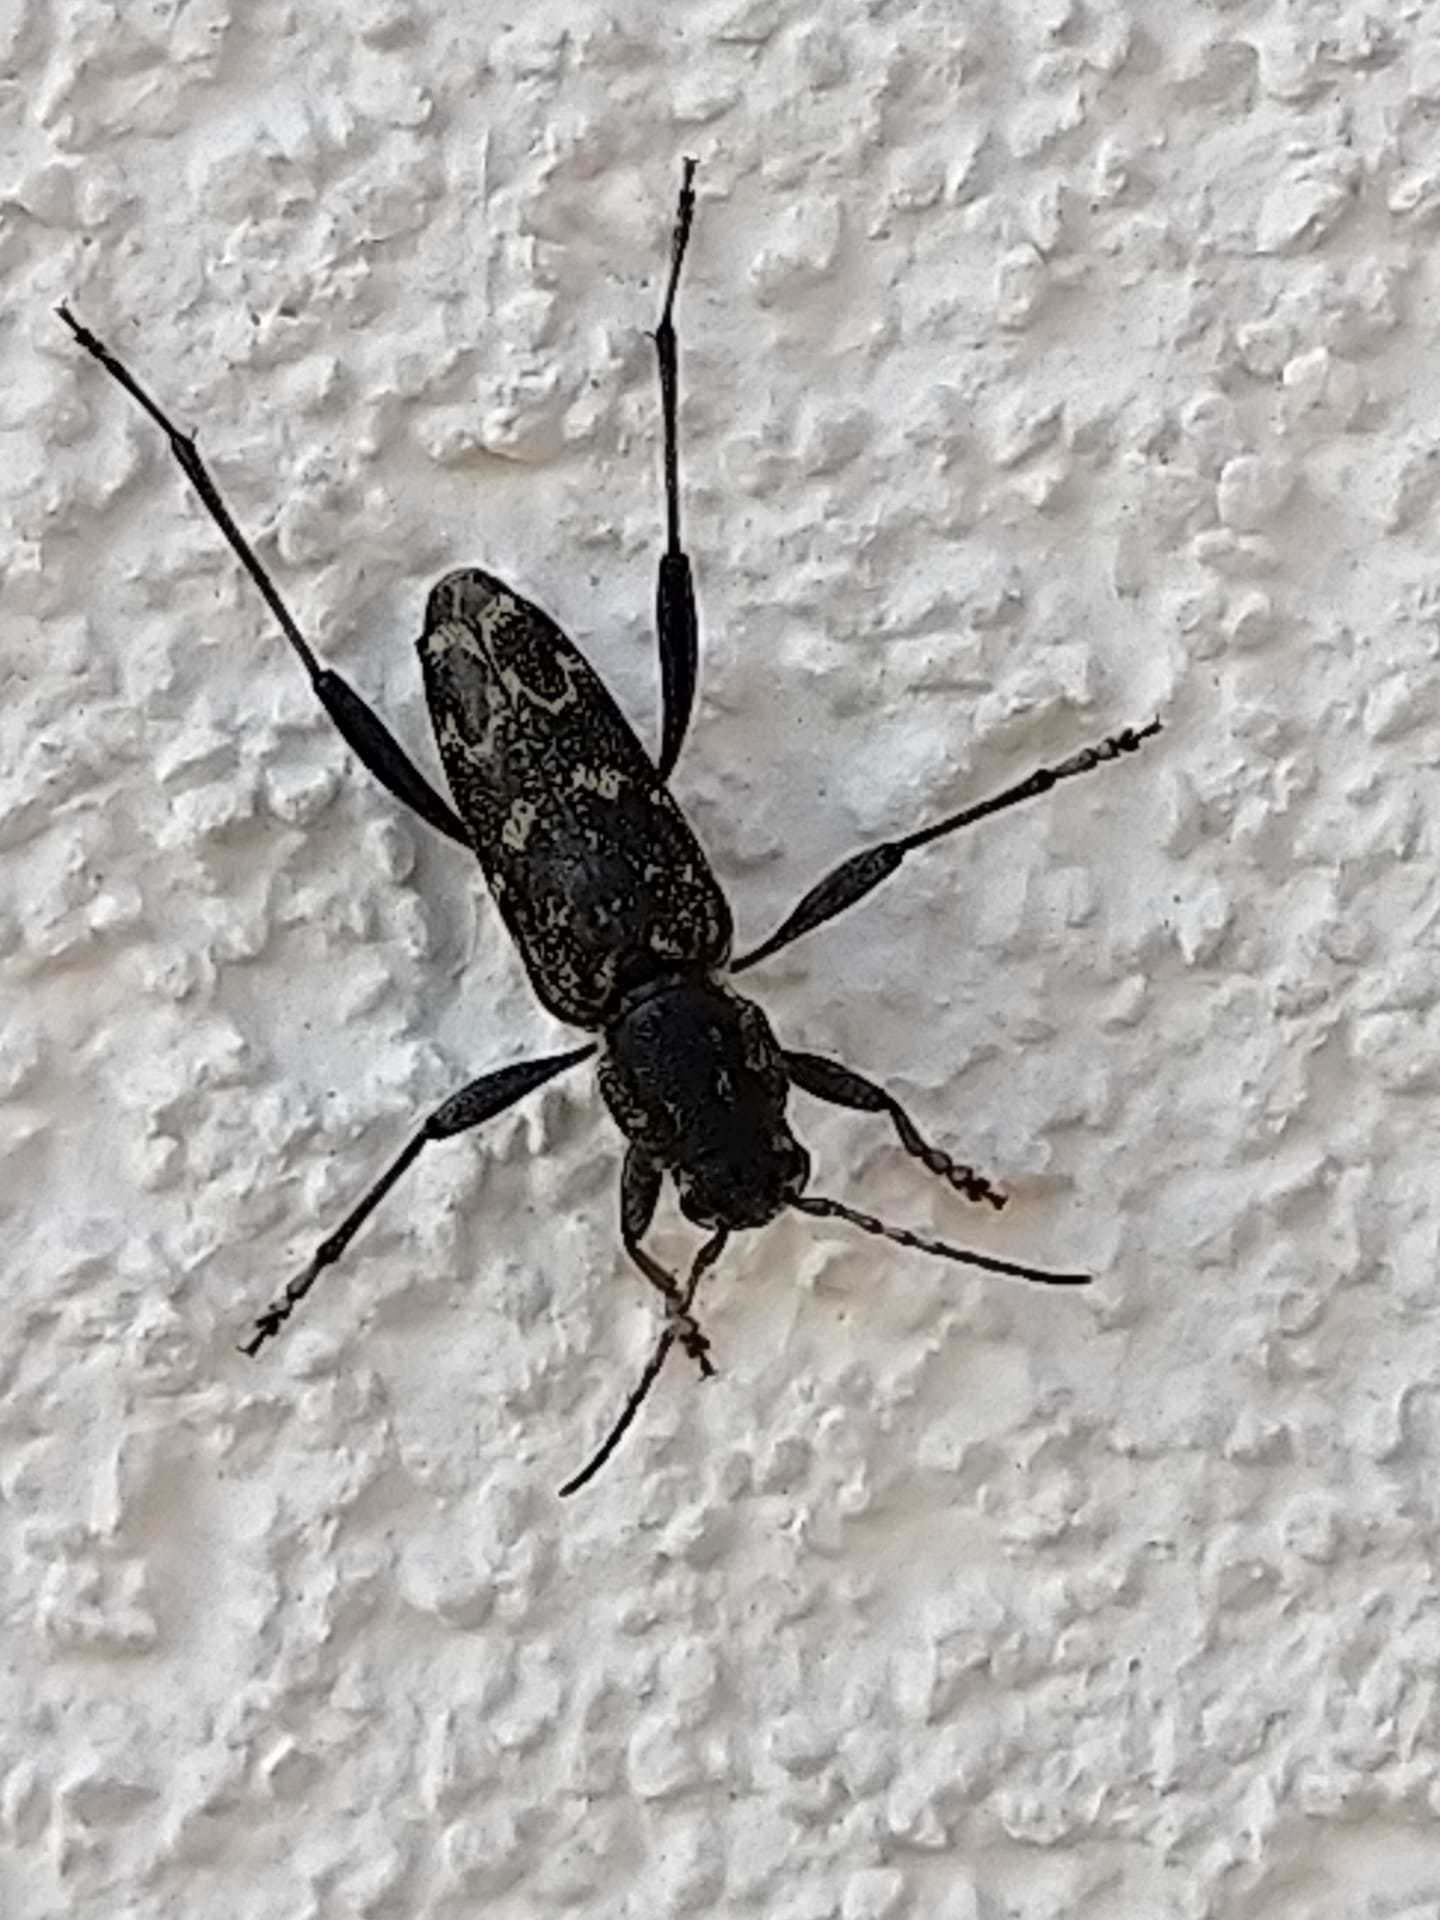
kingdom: Animalia
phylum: Arthropoda
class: Insecta
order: Coleoptera
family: Cerambycidae
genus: Xylotrechus
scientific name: Xylotrechus rusticus
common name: Grey tiger long-horned beetle
